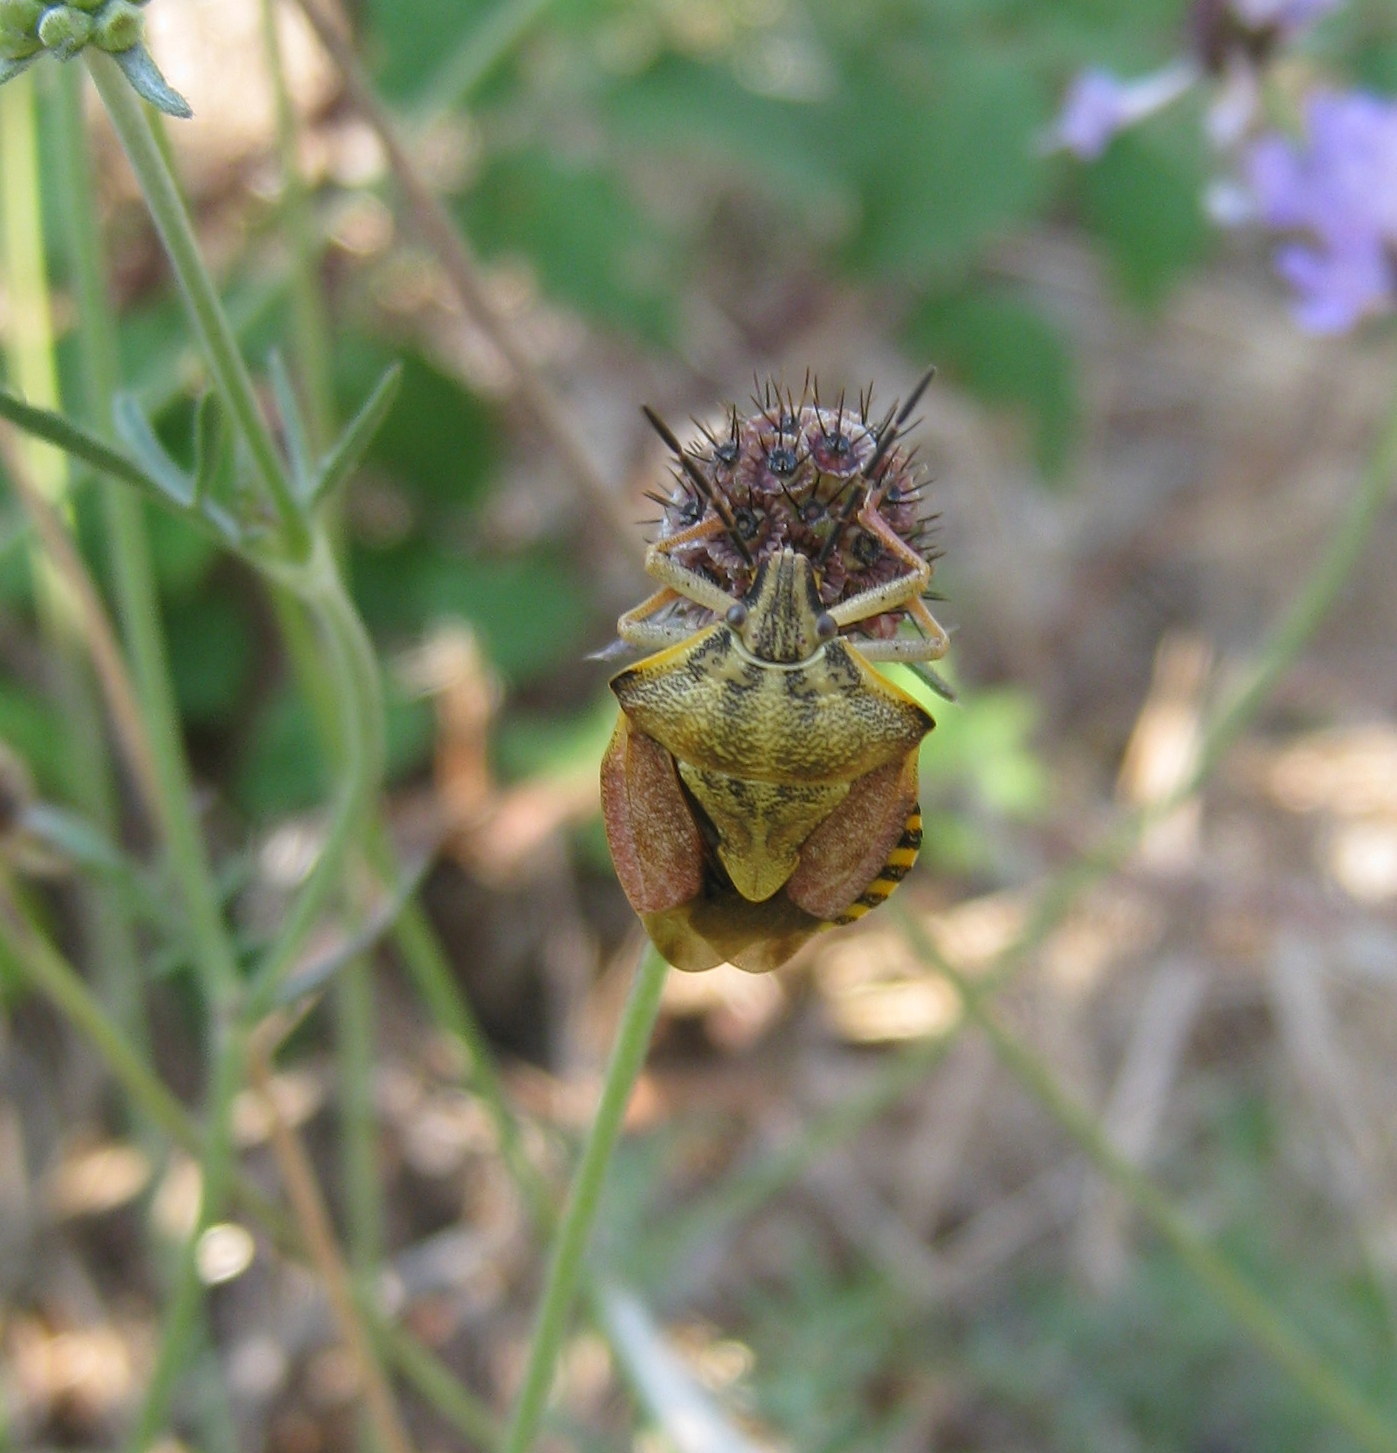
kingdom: Animalia
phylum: Arthropoda
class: Insecta
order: Hemiptera
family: Pentatomidae
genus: Carpocoris
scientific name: Carpocoris purpureipennis
